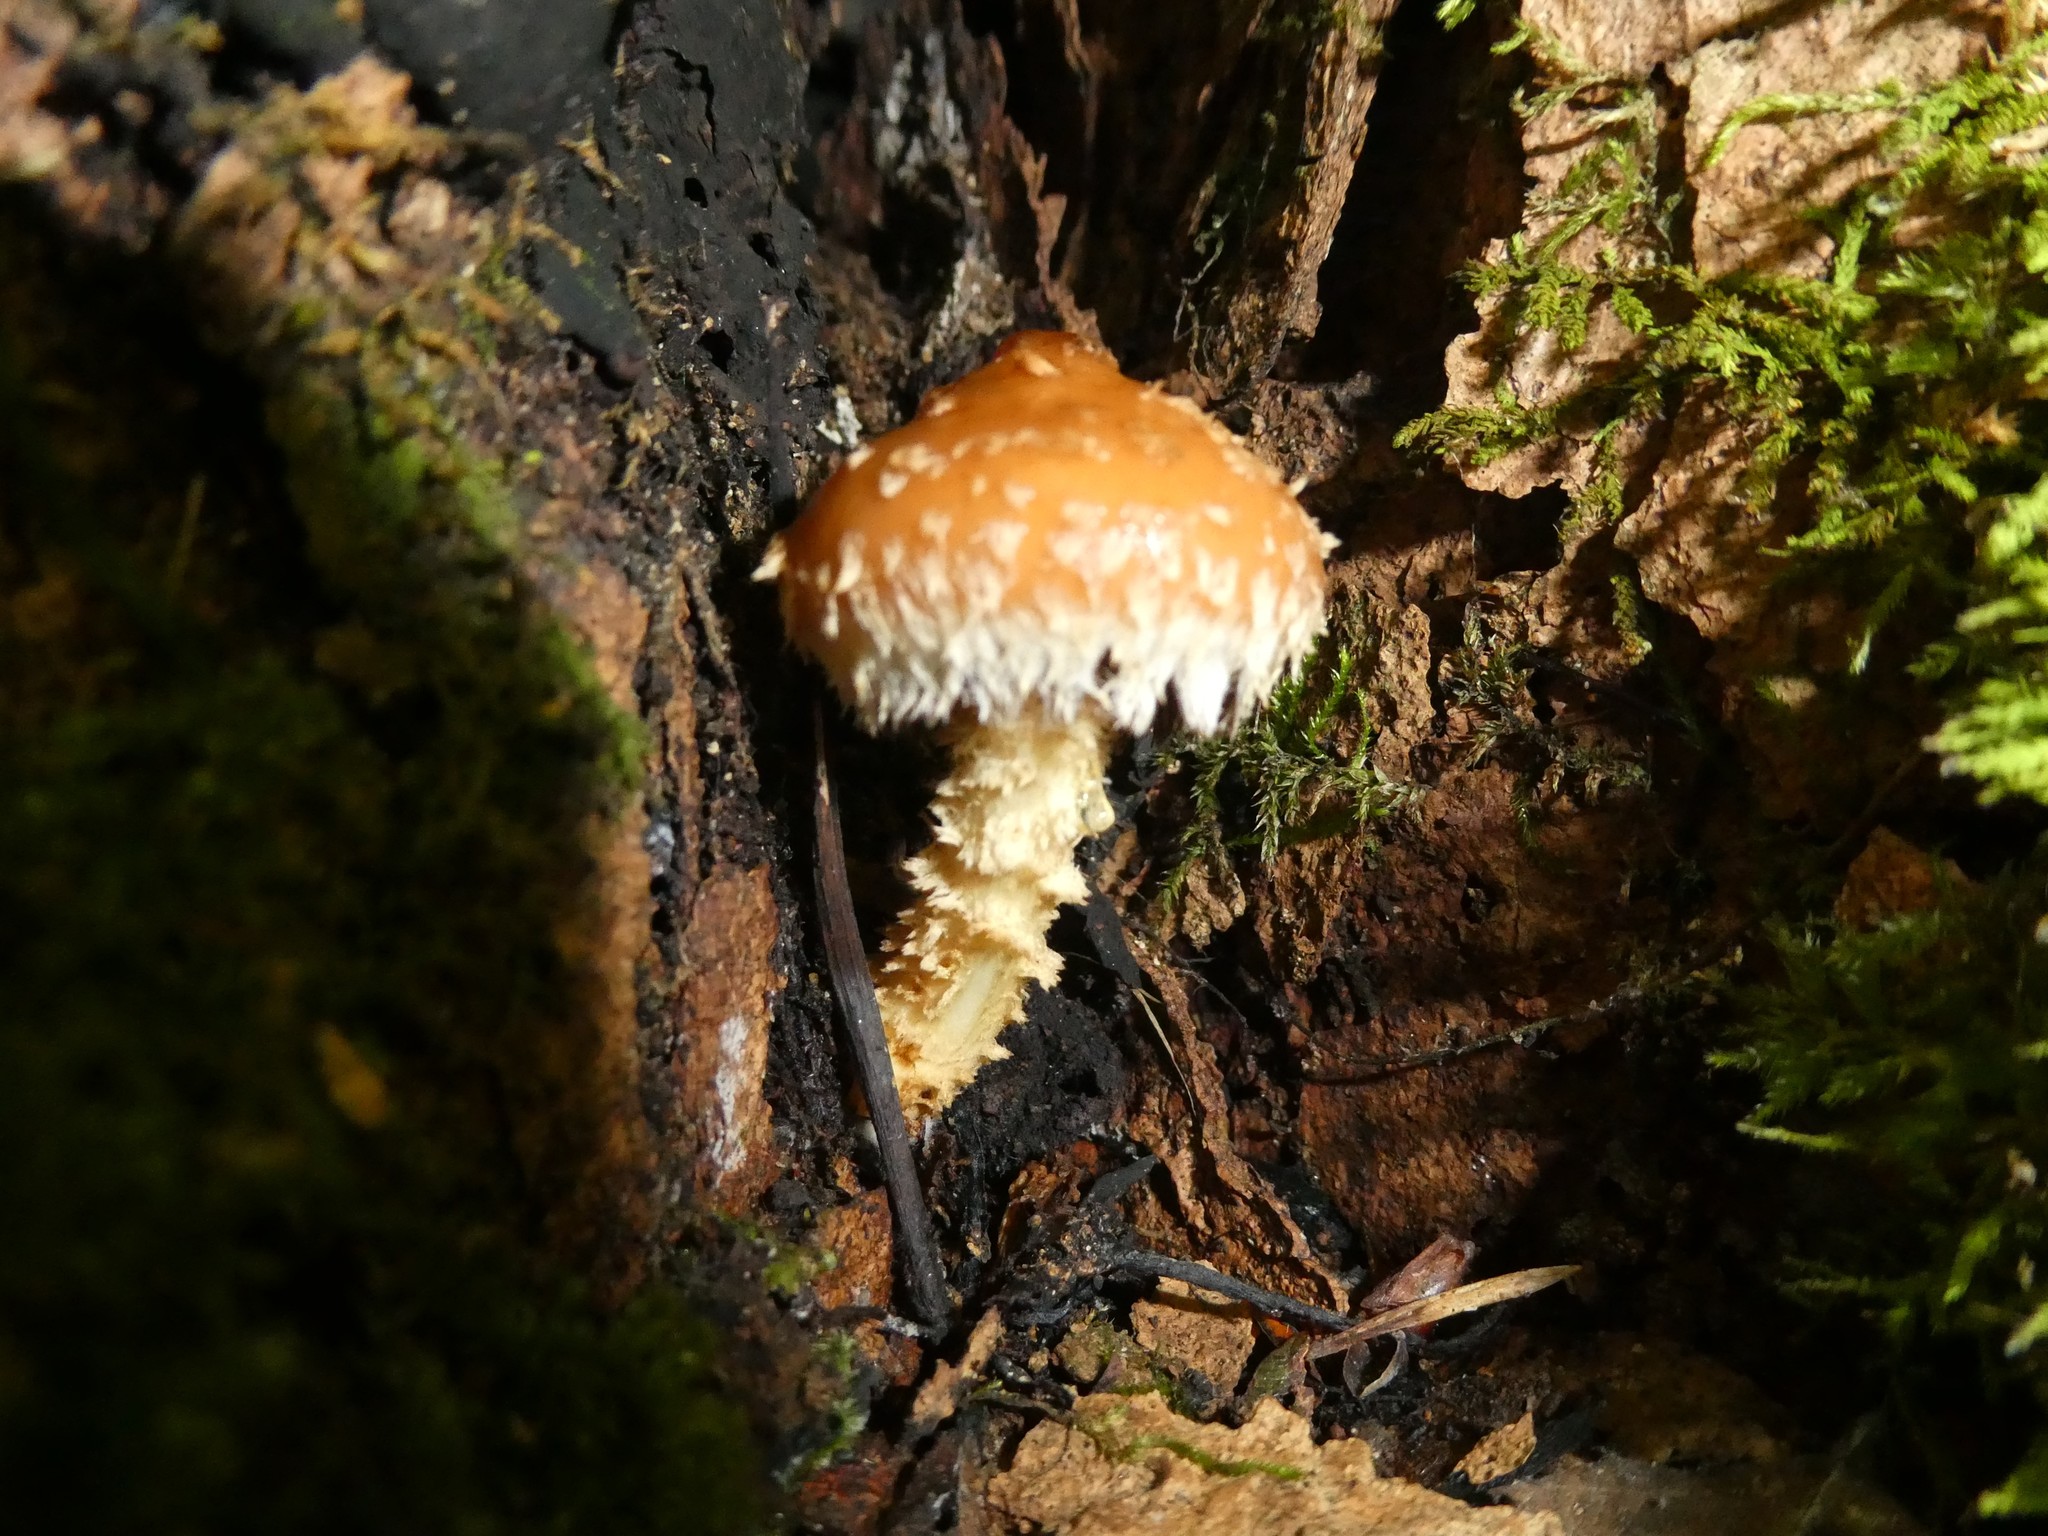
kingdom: Fungi
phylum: Basidiomycota
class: Agaricomycetes
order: Agaricales
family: Tubariaceae
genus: Hemistropharia
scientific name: Hemistropharia albocrenulata
